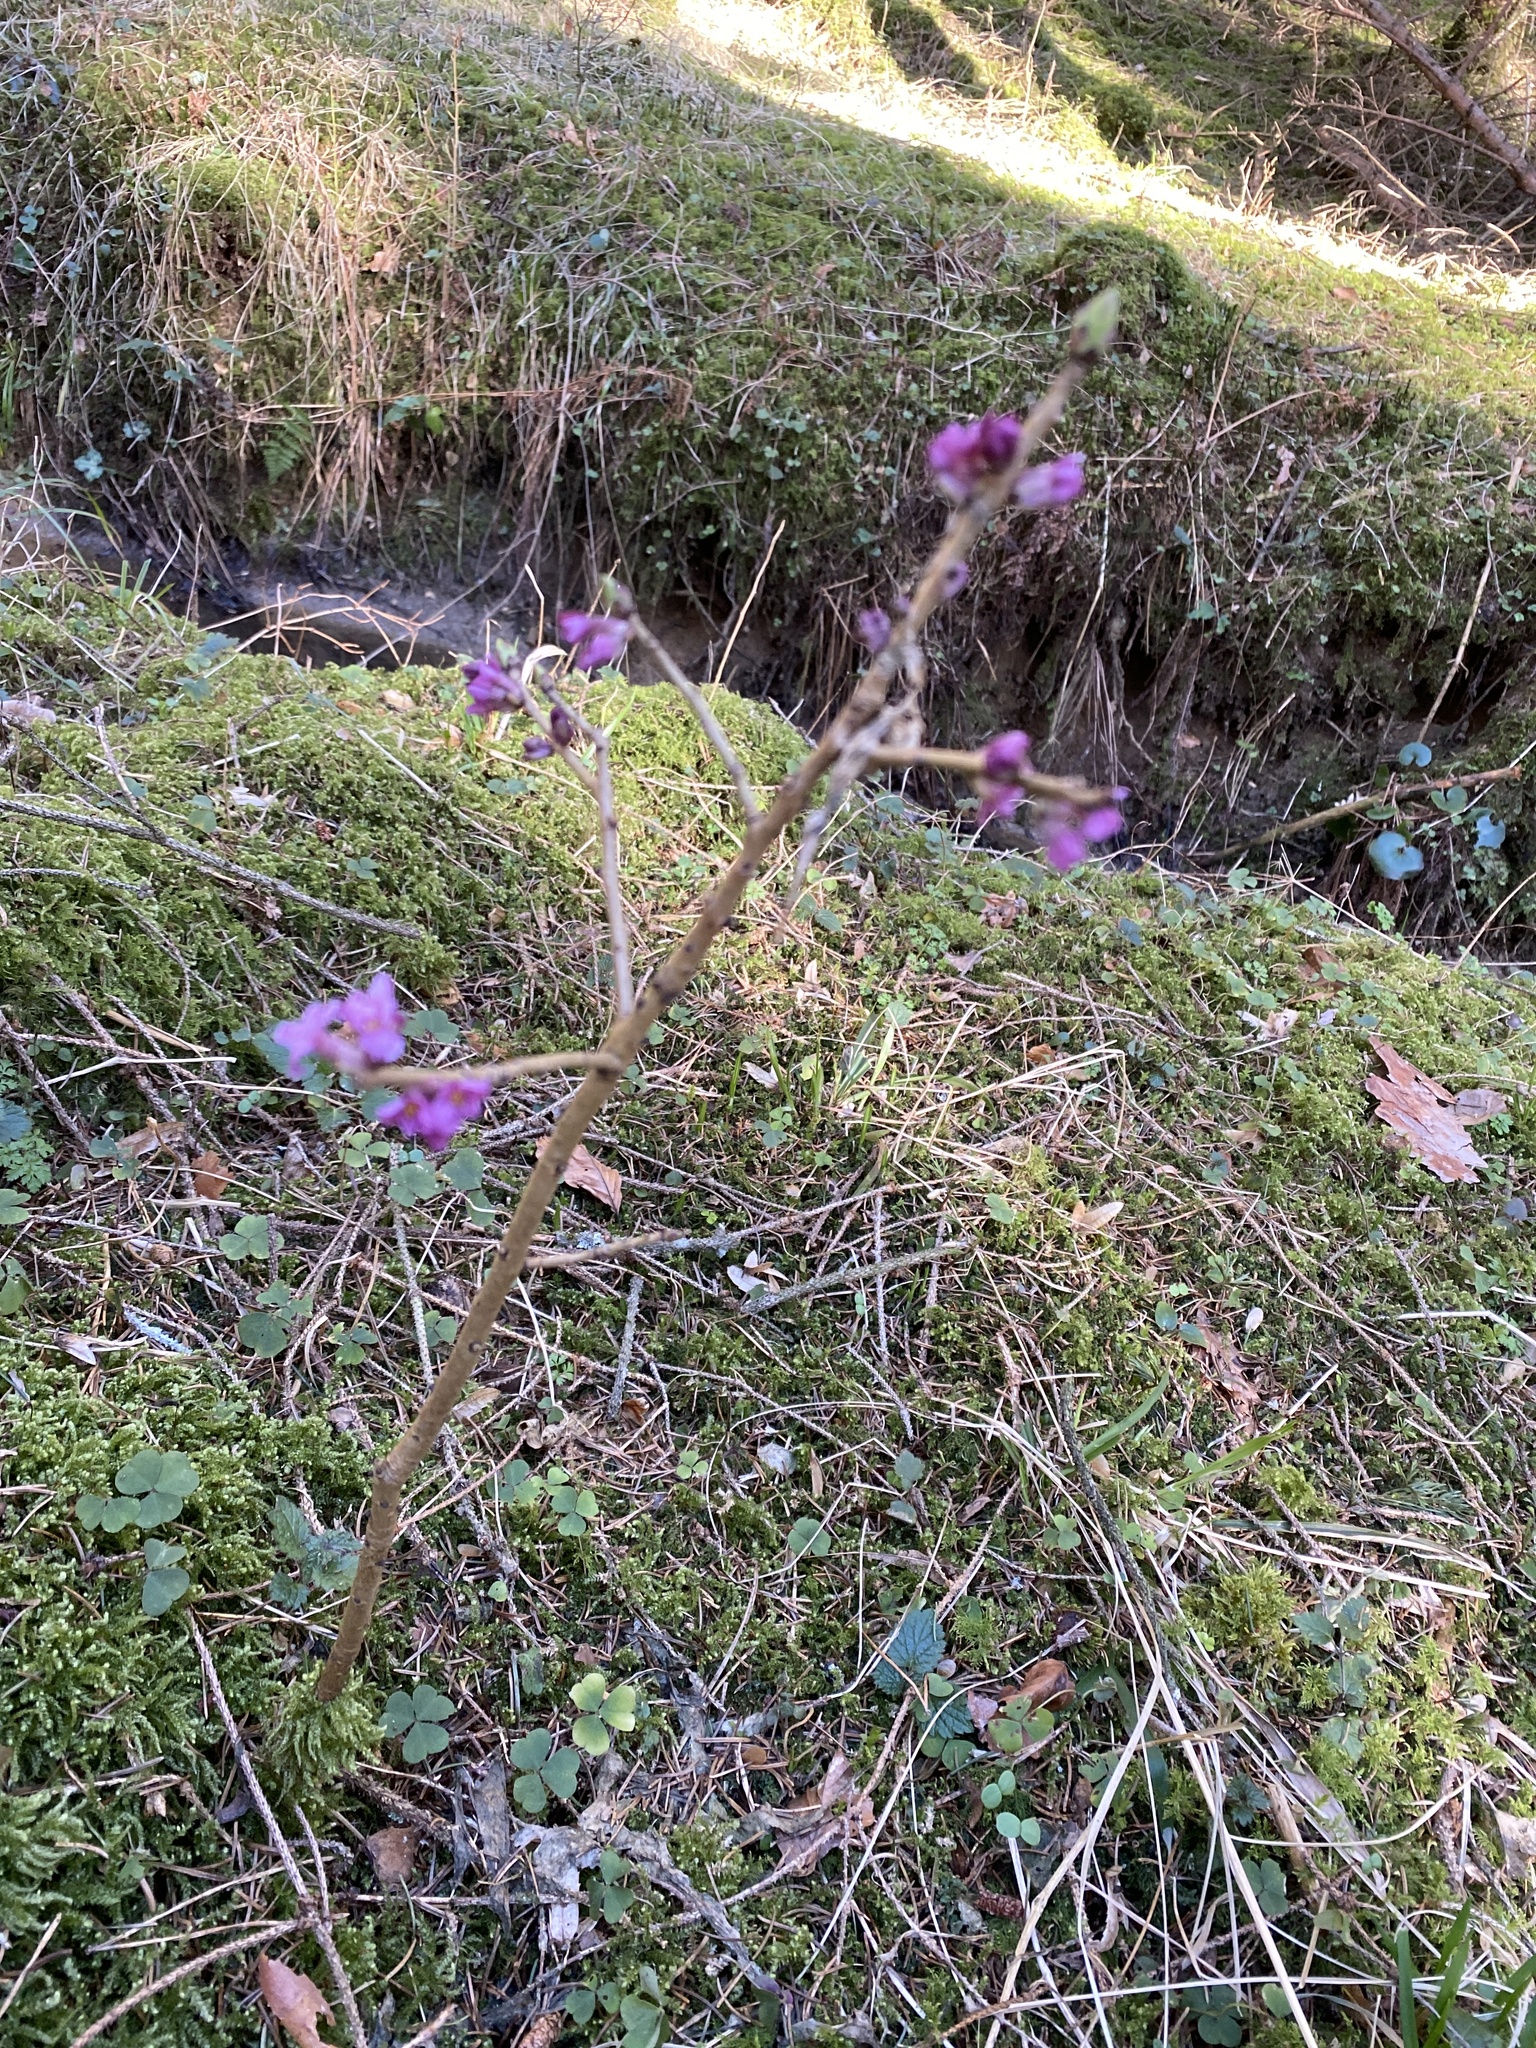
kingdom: Plantae
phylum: Tracheophyta
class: Magnoliopsida
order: Malvales
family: Thymelaeaceae
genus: Daphne
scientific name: Daphne mezereum
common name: Mezereon
